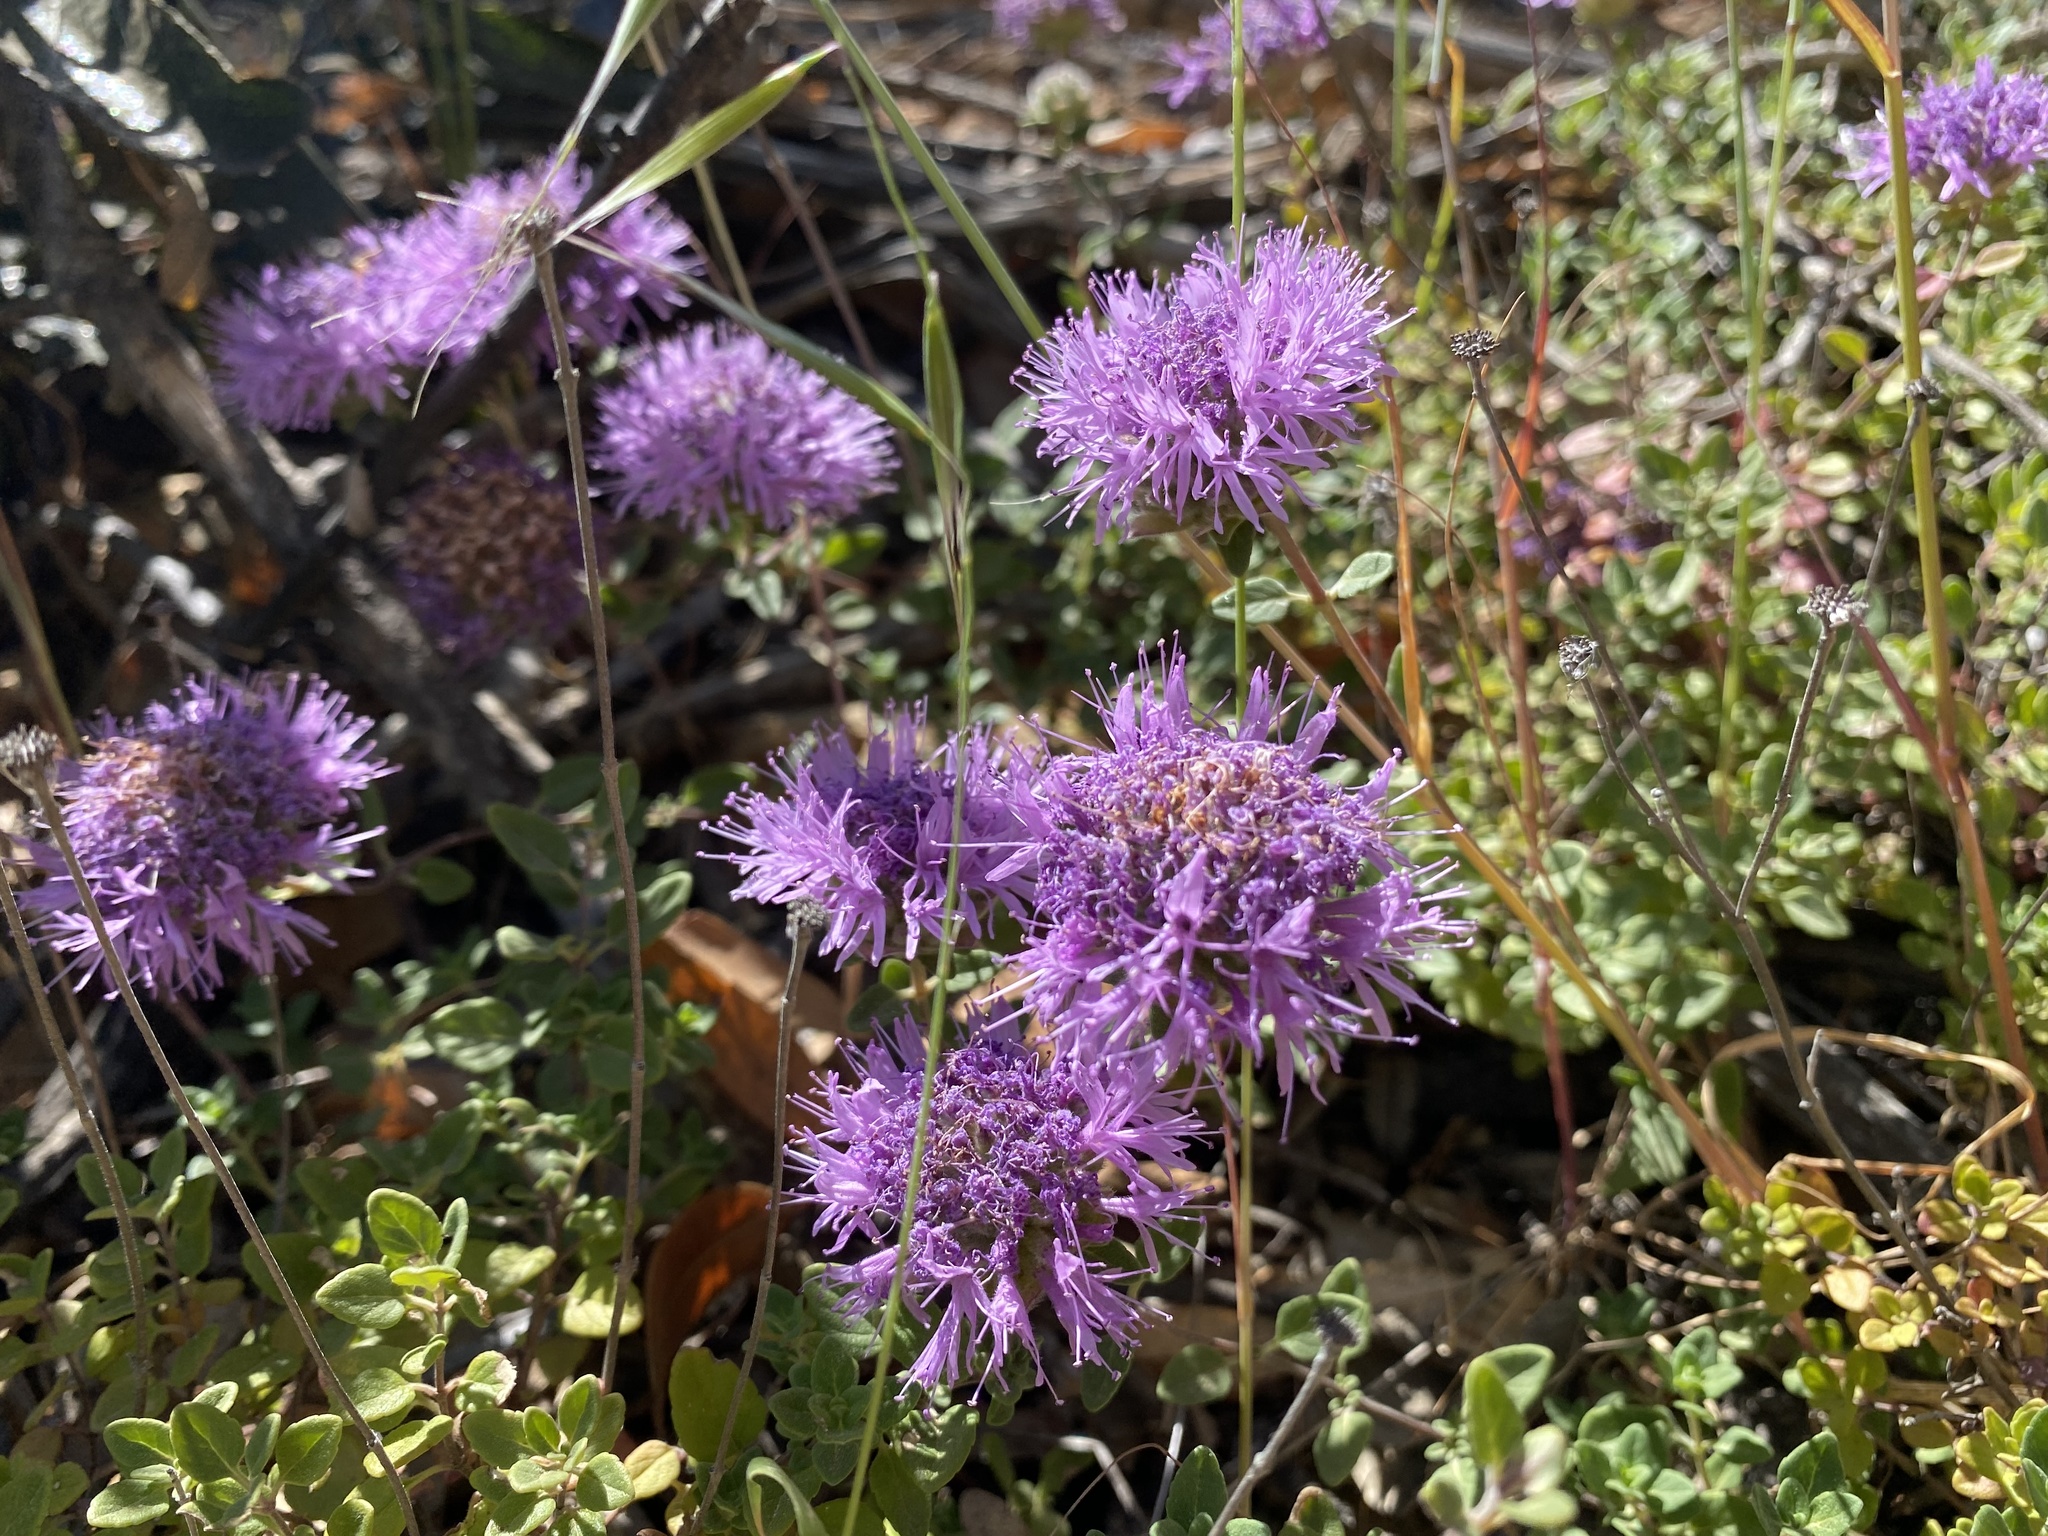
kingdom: Plantae
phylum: Tracheophyta
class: Magnoliopsida
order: Lamiales
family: Lamiaceae
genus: Monardella
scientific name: Monardella odoratissima
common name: Pacific monardella
